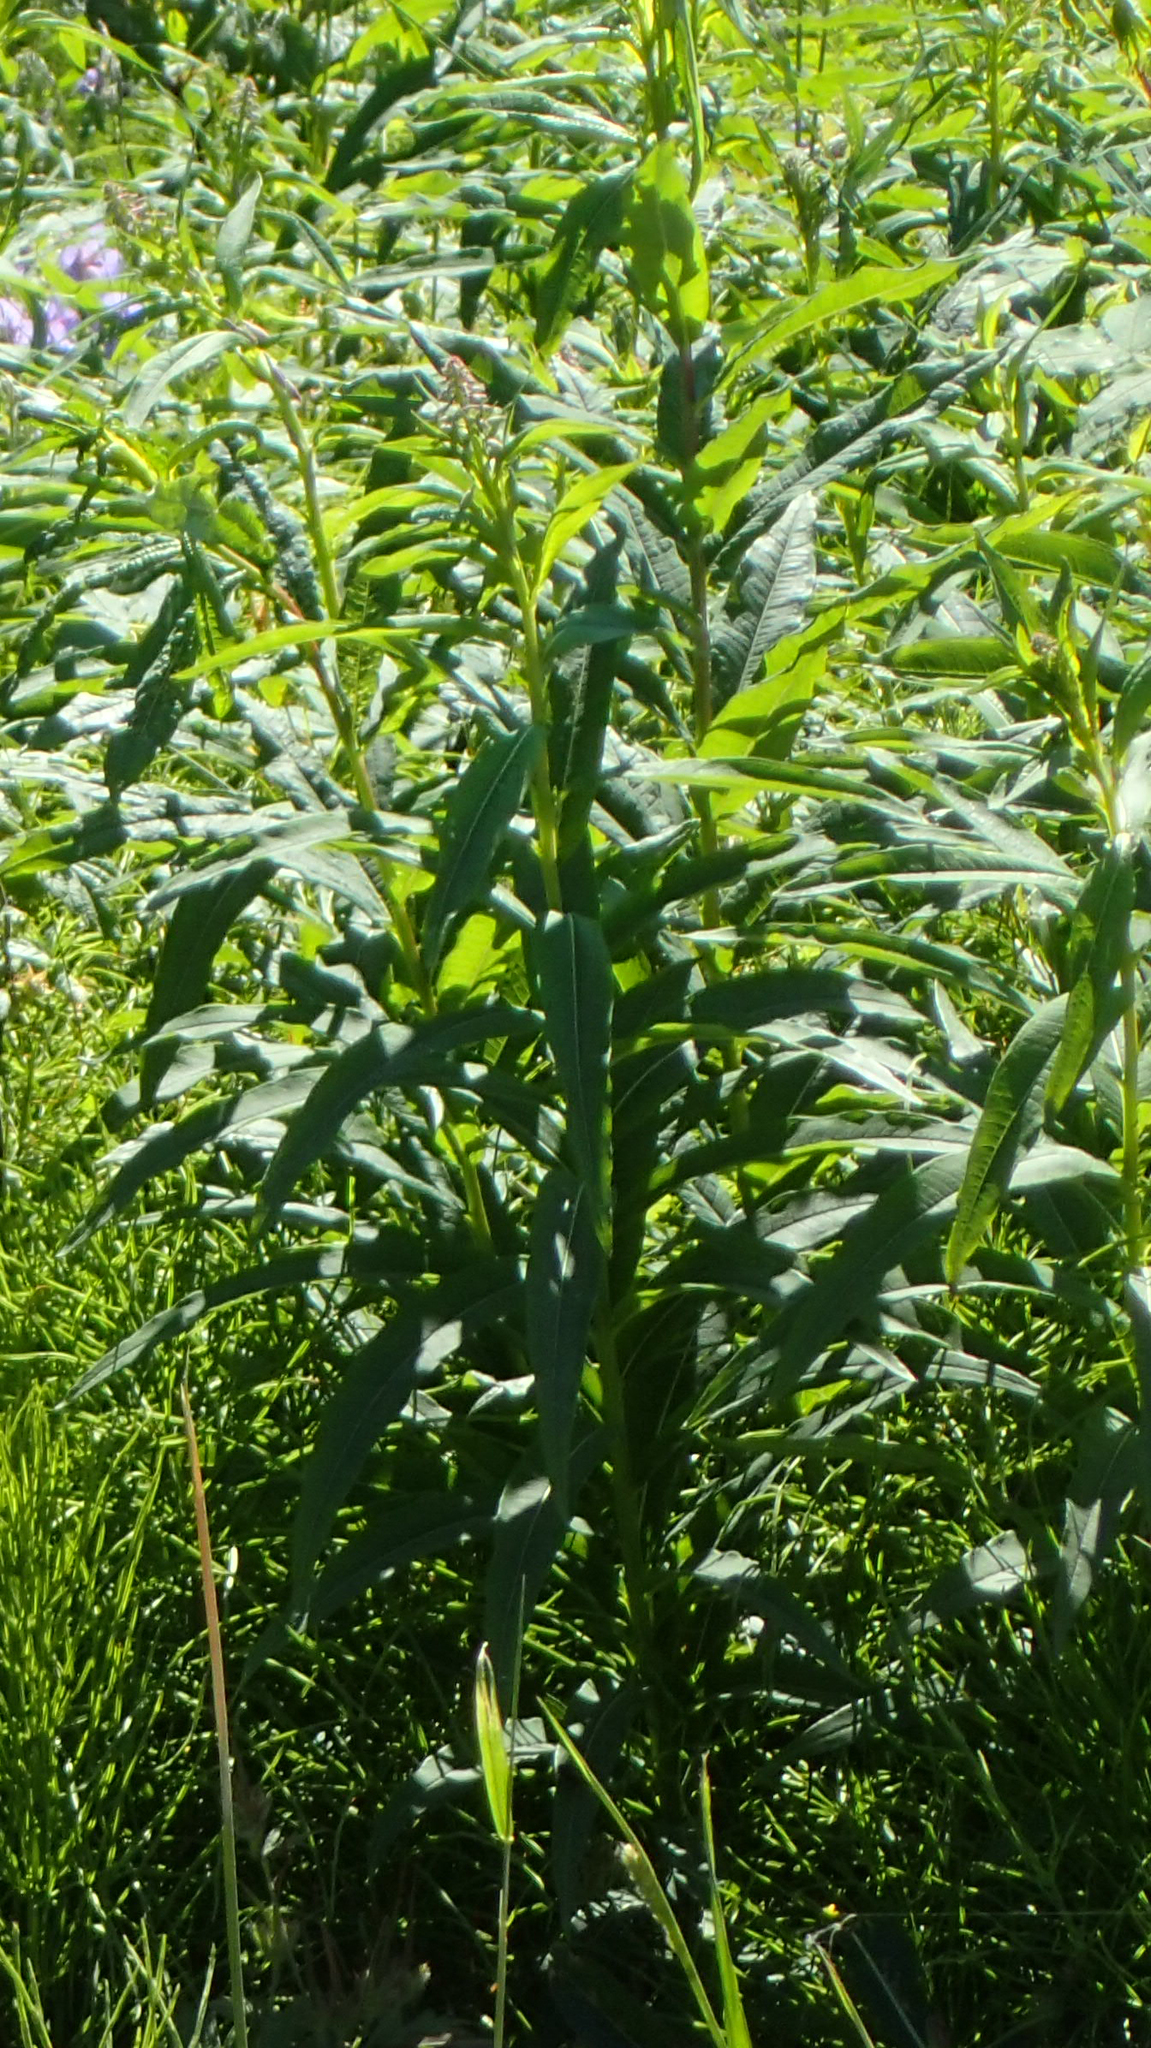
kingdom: Plantae
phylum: Tracheophyta
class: Magnoliopsida
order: Myrtales
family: Onagraceae
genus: Chamaenerion
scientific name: Chamaenerion angustifolium
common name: Fireweed
